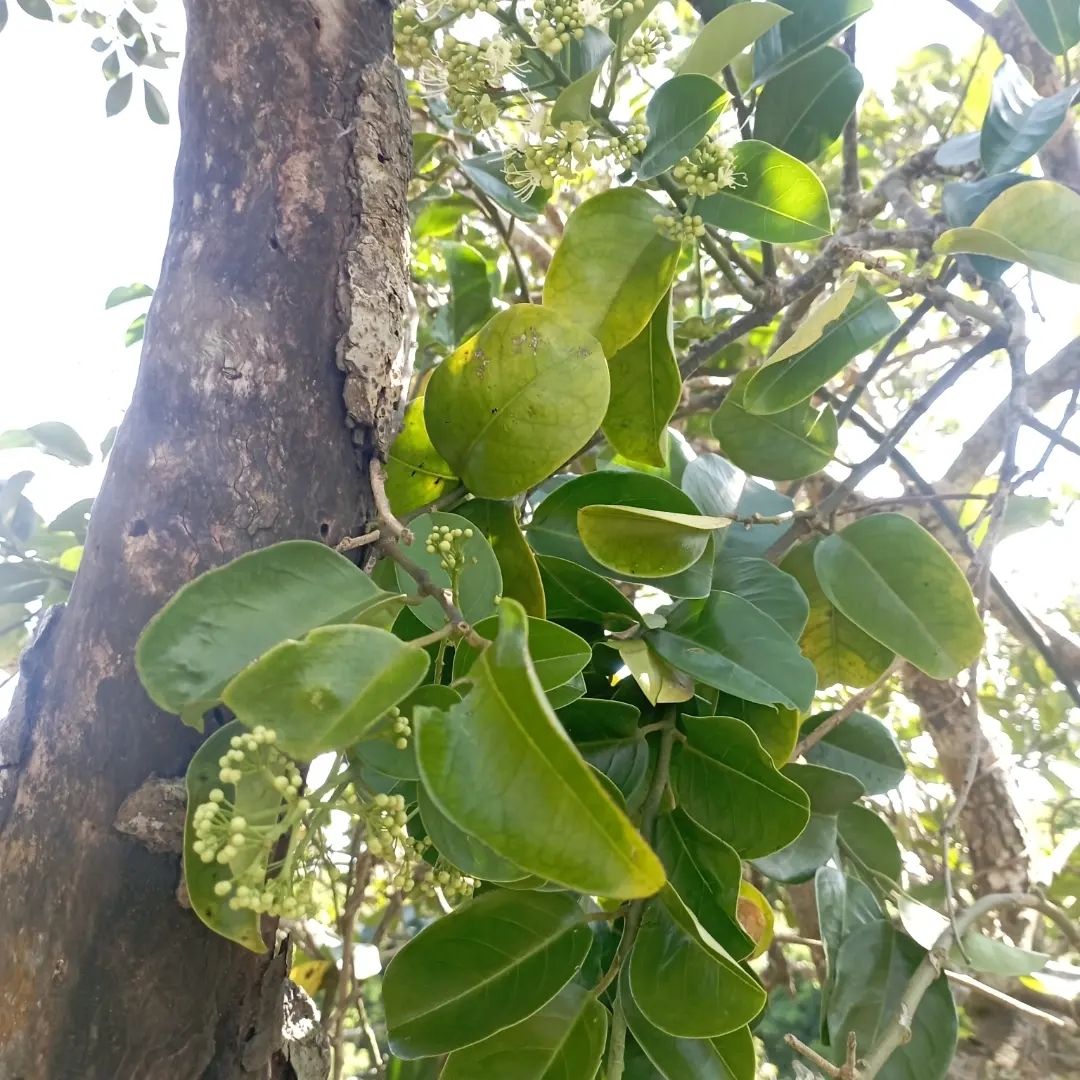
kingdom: Plantae
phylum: Tracheophyta
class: Magnoliopsida
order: Brassicales
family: Capparaceae
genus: Capparis
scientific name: Capparis floribunda
